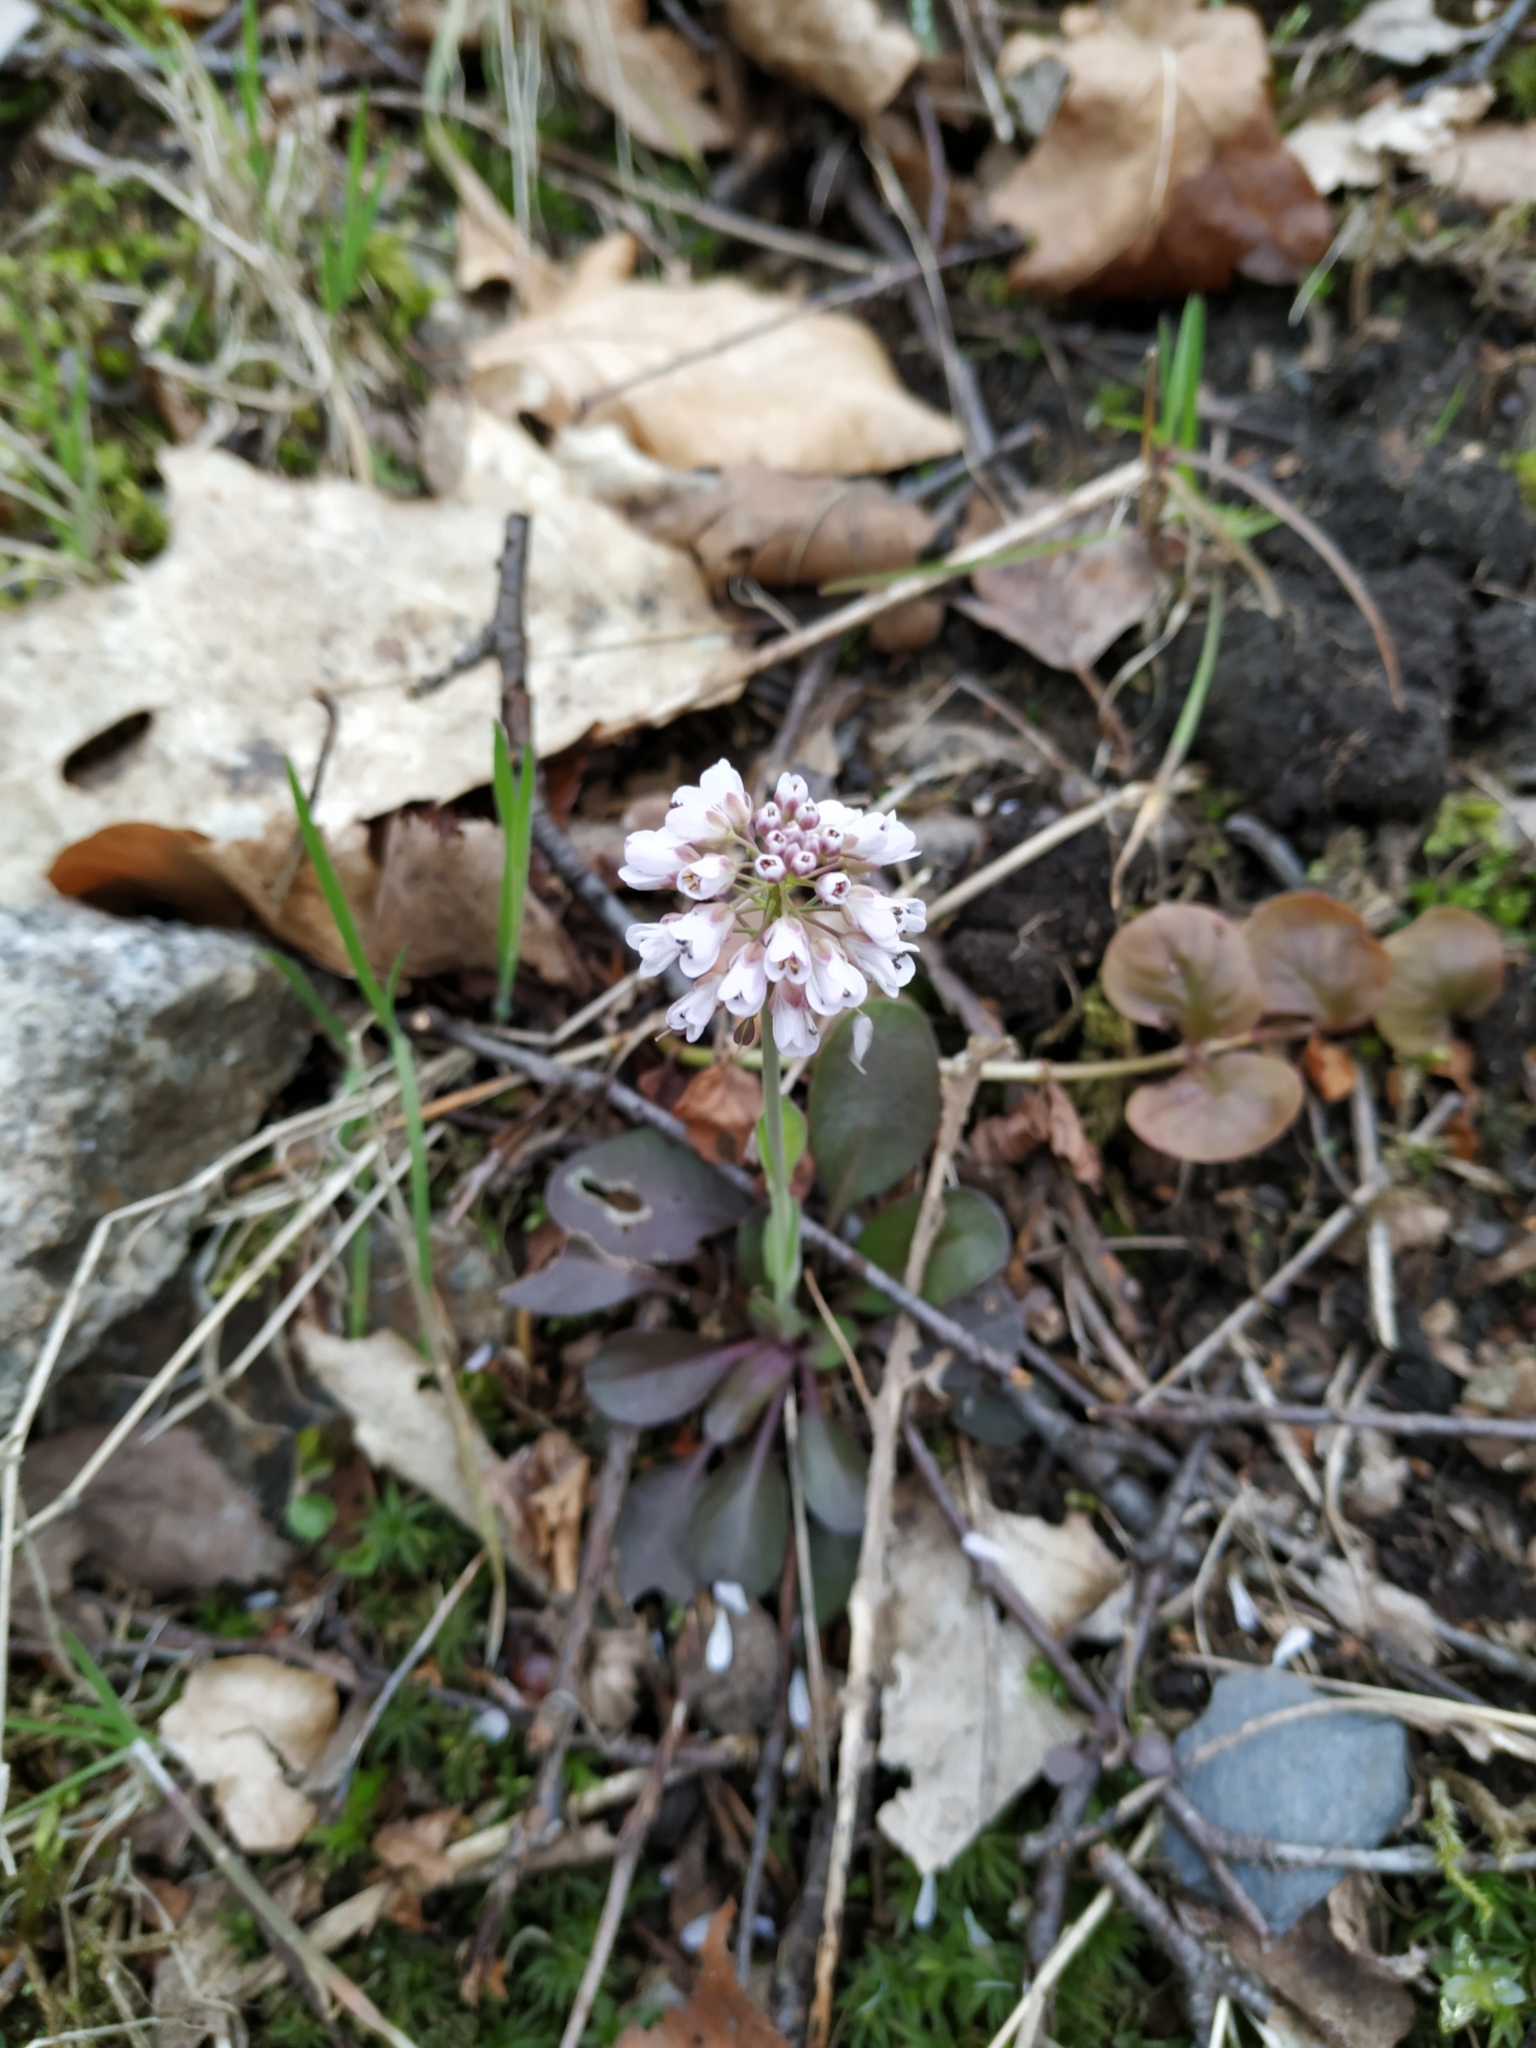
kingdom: Plantae
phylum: Tracheophyta
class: Magnoliopsida
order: Brassicales
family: Brassicaceae
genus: Noccaea
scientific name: Noccaea caerulescens
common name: Alpine pennycress
